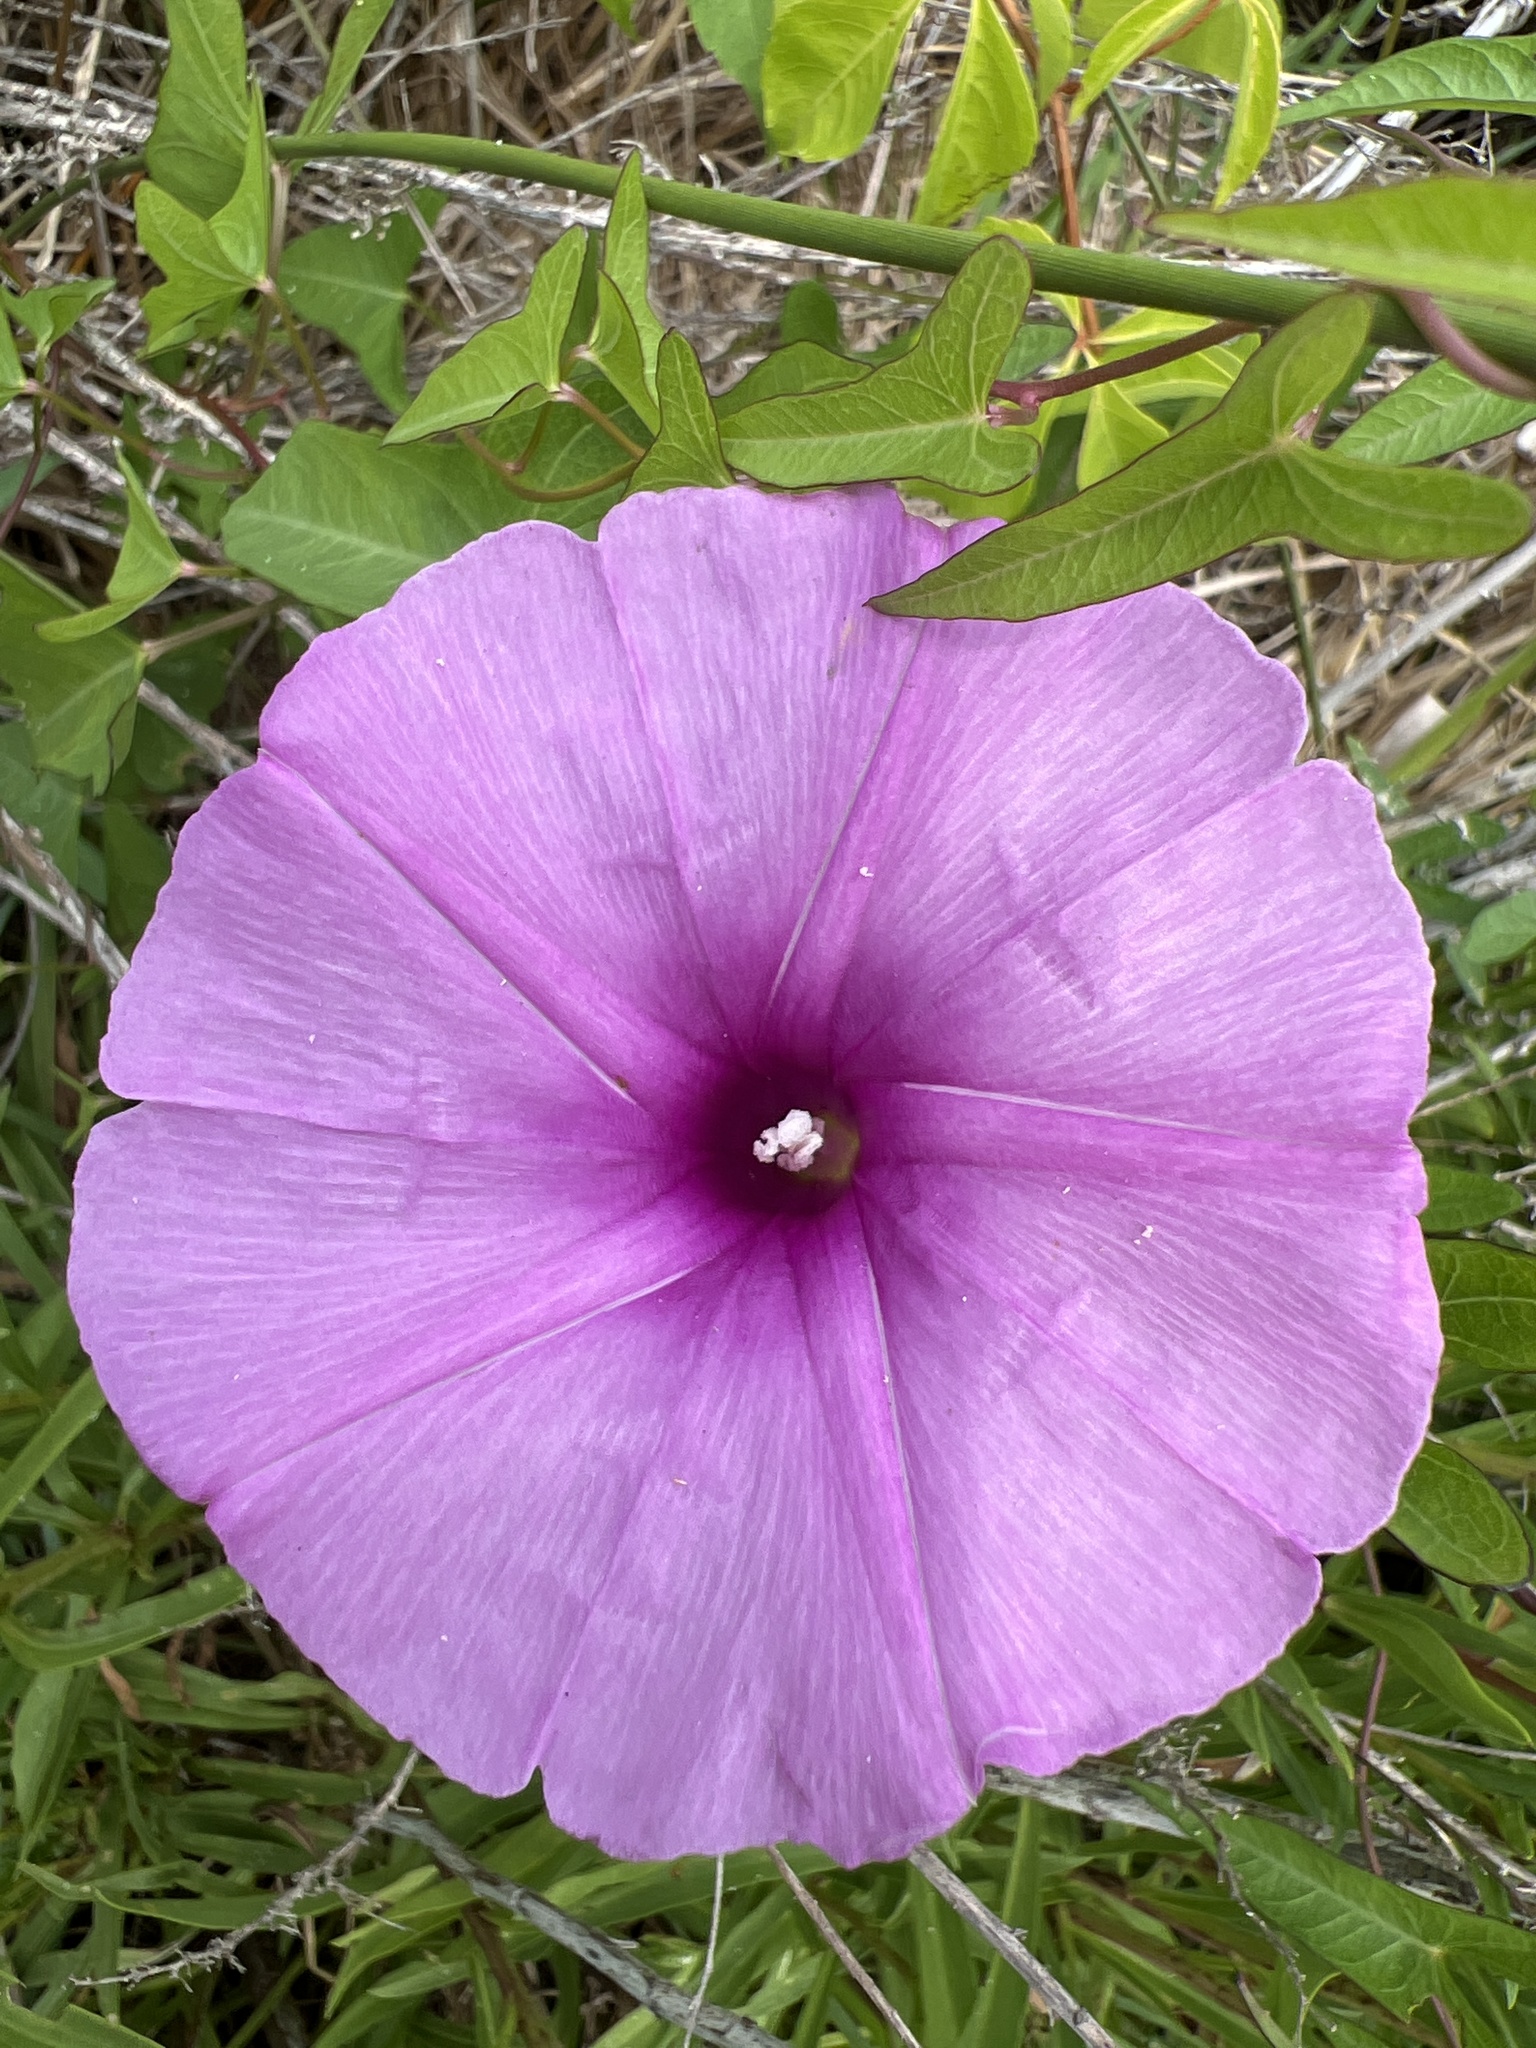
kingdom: Plantae
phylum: Tracheophyta
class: Magnoliopsida
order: Solanales
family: Convolvulaceae
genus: Ipomoea
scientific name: Ipomoea sagittata
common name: Saltmarsh morning glory
